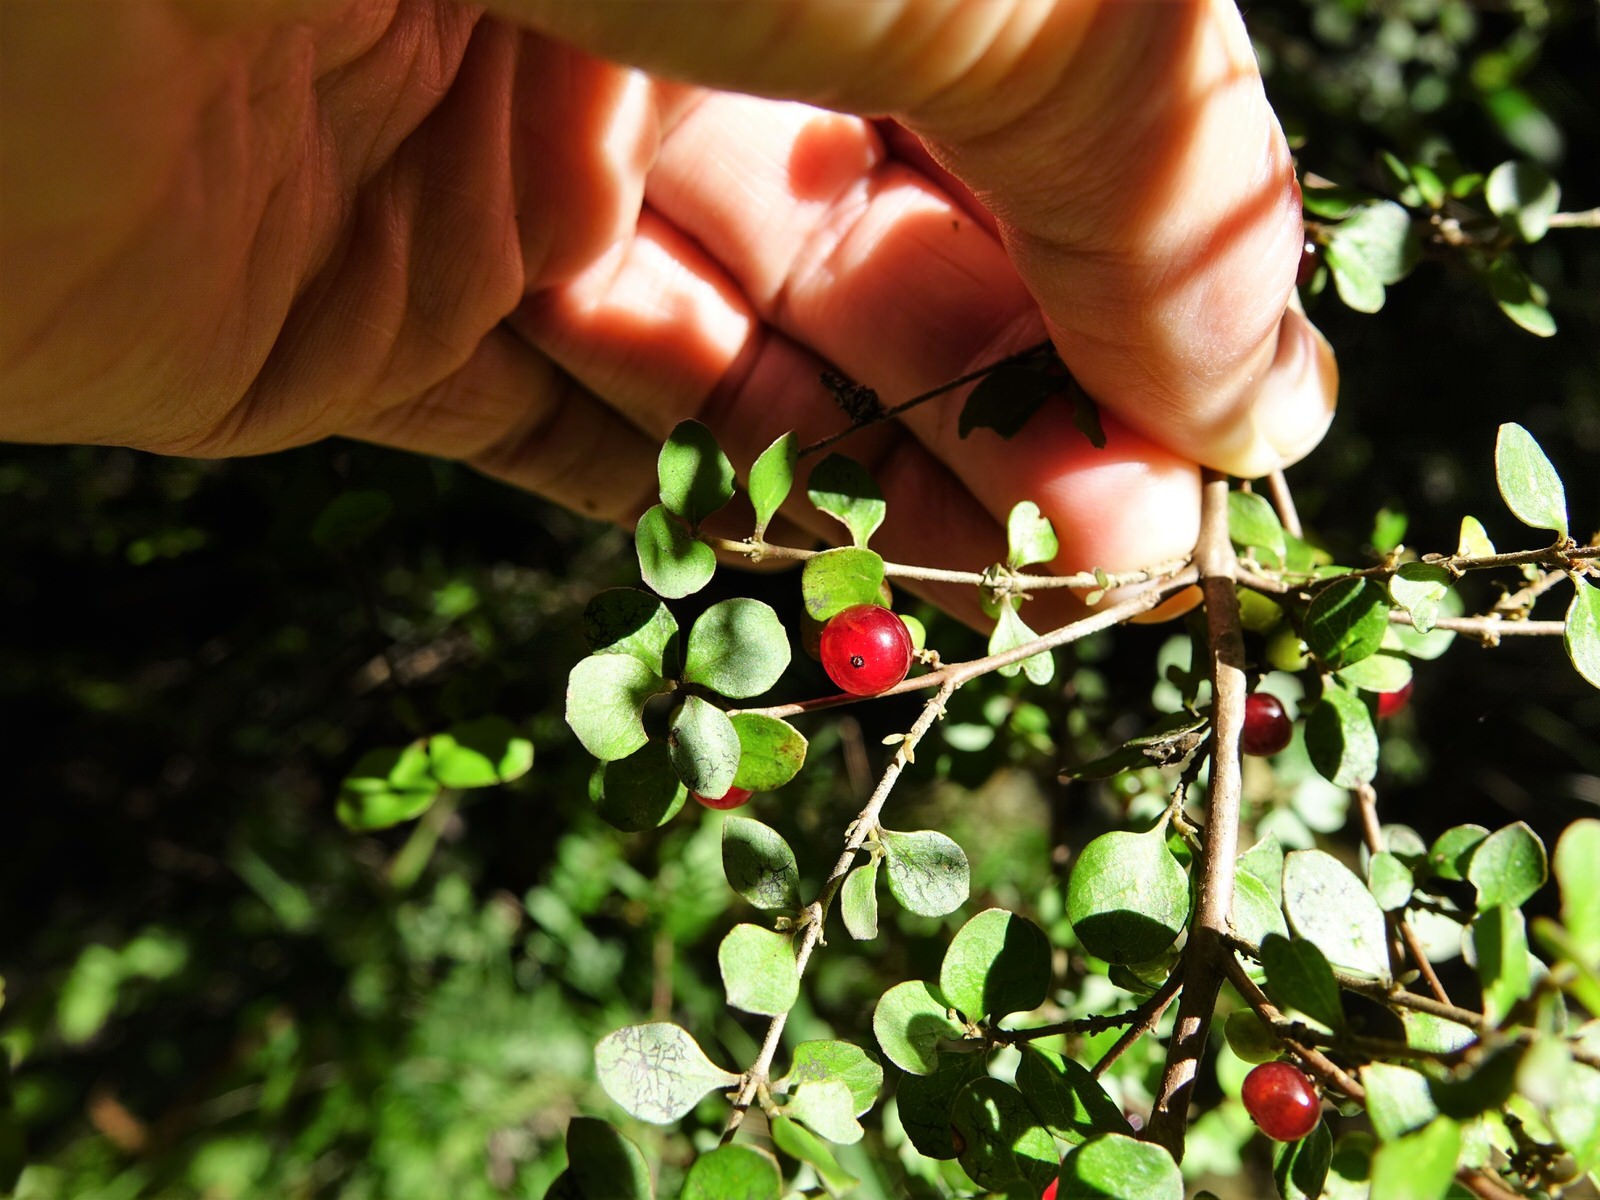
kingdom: Plantae
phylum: Tracheophyta
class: Magnoliopsida
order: Gentianales
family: Rubiaceae
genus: Coprosma
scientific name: Coprosma rhamnoides
